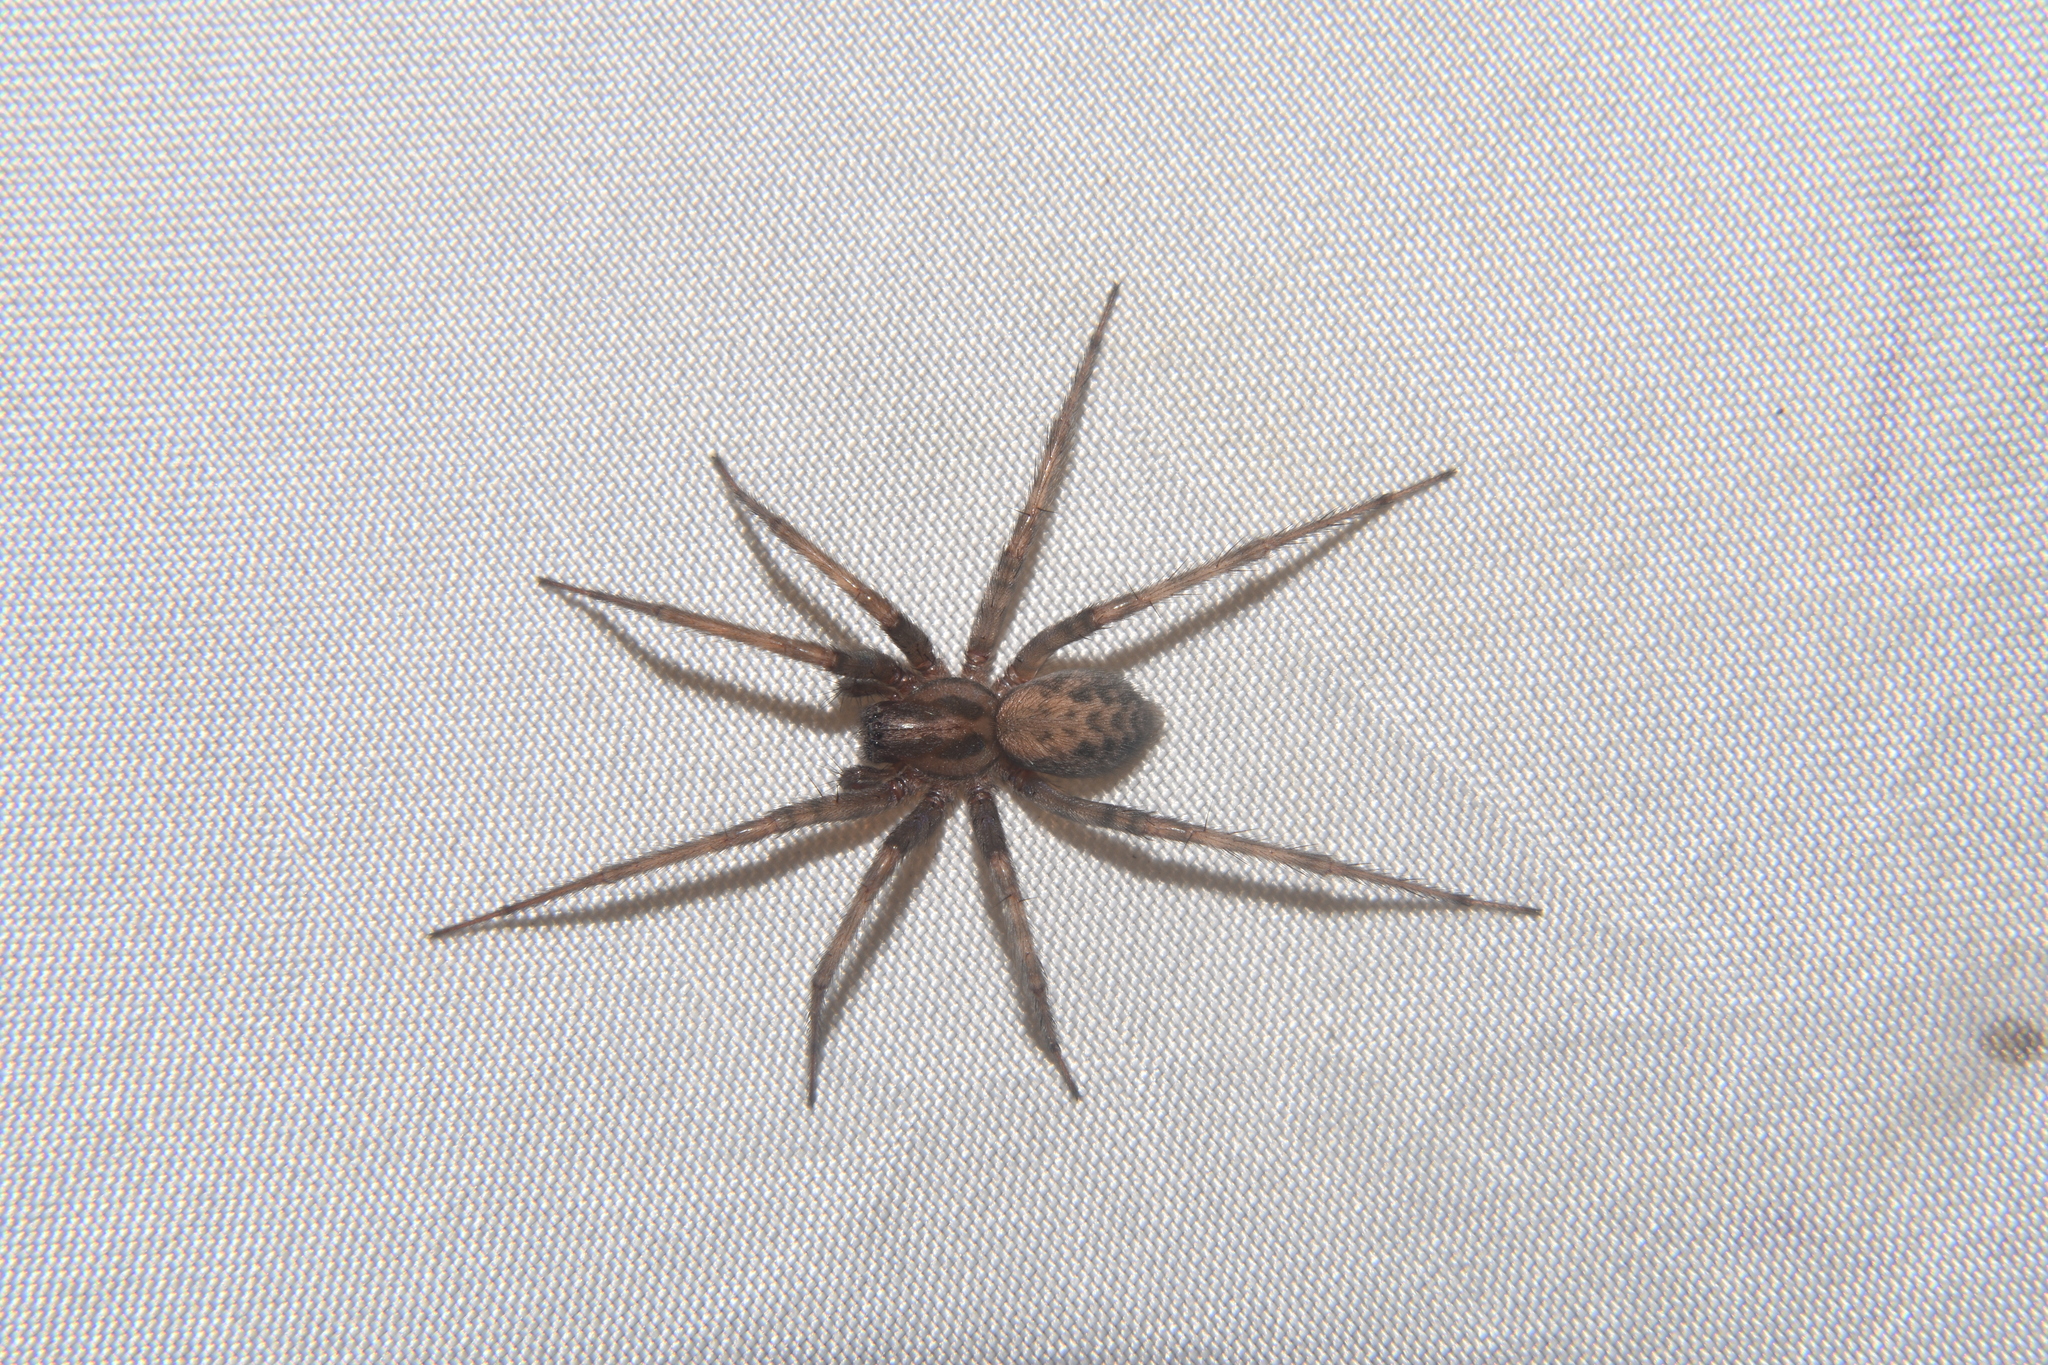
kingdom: Animalia
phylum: Arthropoda
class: Arachnida
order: Araneae
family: Agelenidae
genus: Tegenaria
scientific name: Tegenaria domestica
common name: Barn funnel weaver
